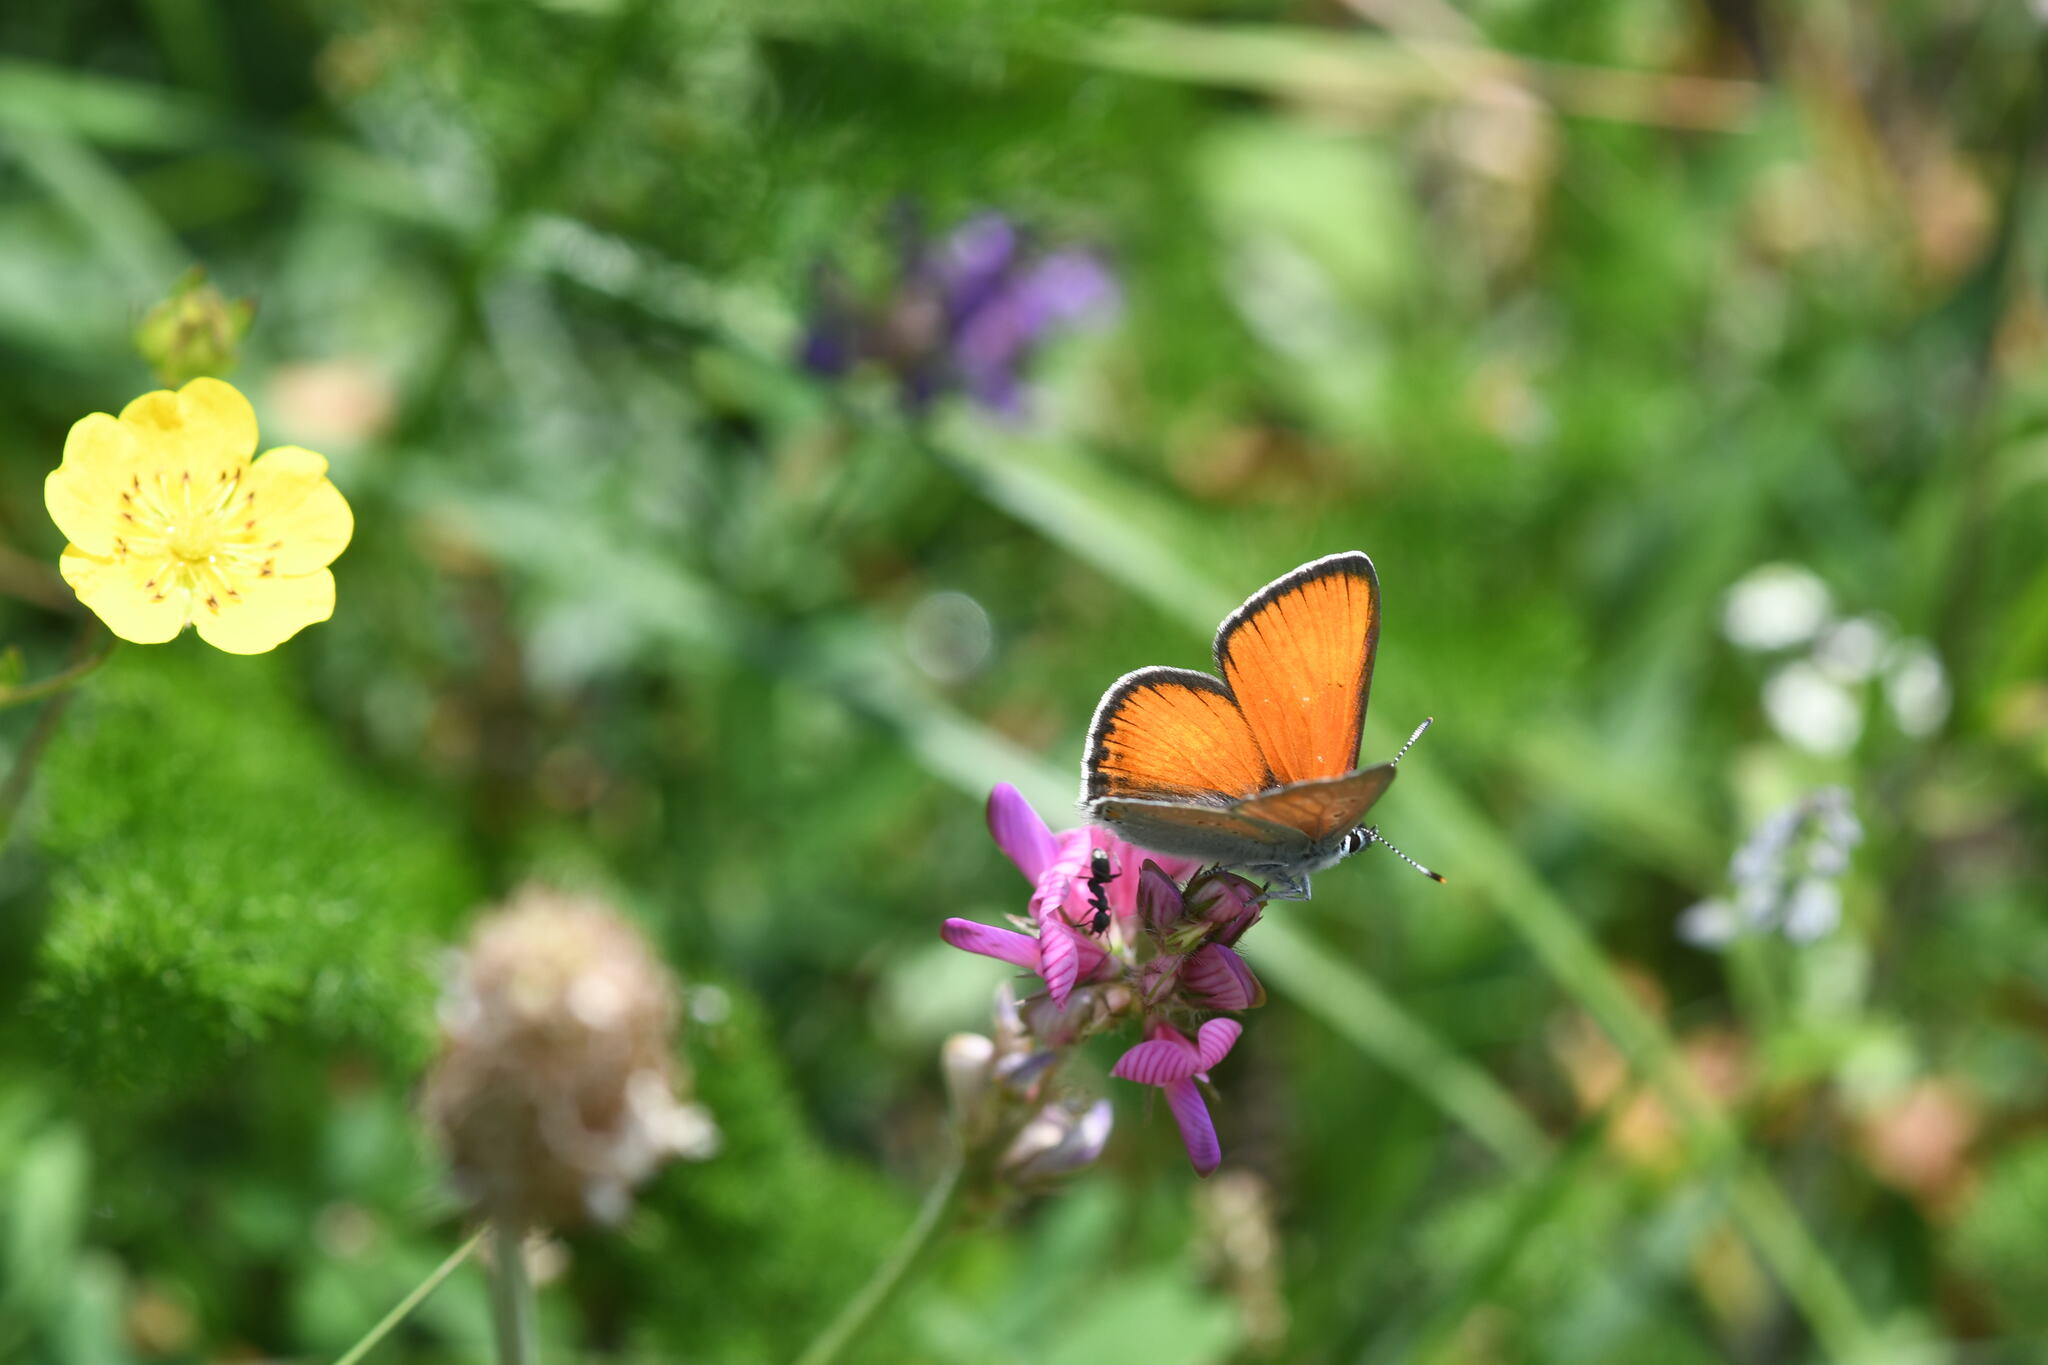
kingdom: Animalia
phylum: Arthropoda
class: Insecta
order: Lepidoptera
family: Lycaenidae
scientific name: Lycaenidae
